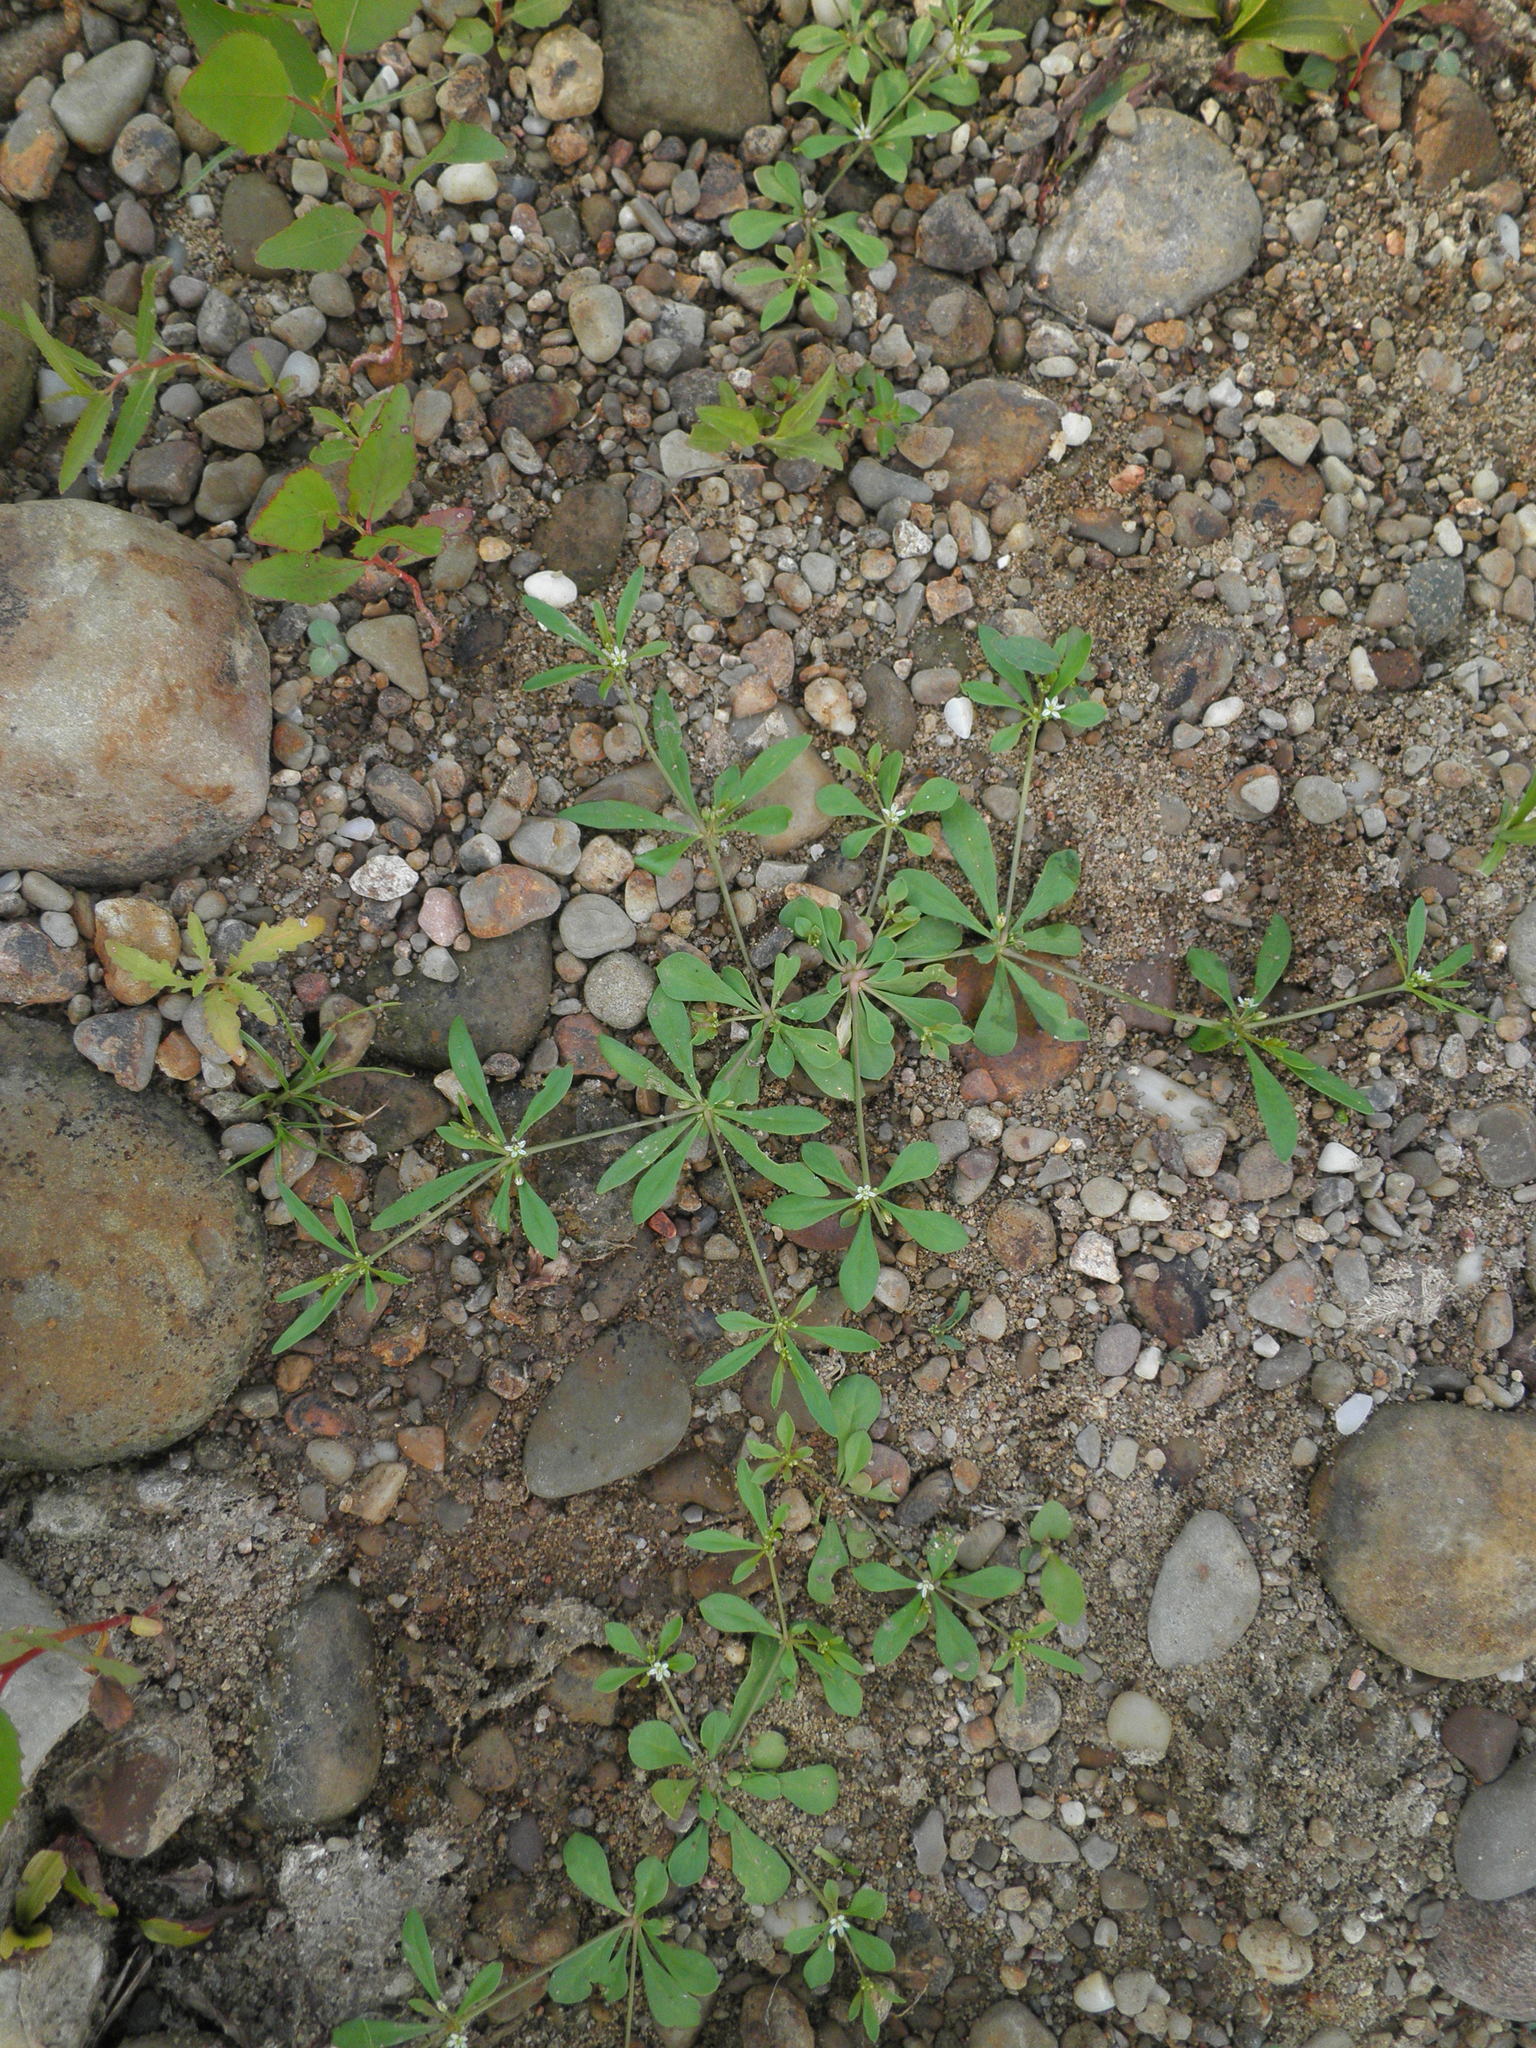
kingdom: Plantae
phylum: Tracheophyta
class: Magnoliopsida
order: Caryophyllales
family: Molluginaceae
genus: Mollugo
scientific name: Mollugo verticillata
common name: Green carpetweed
